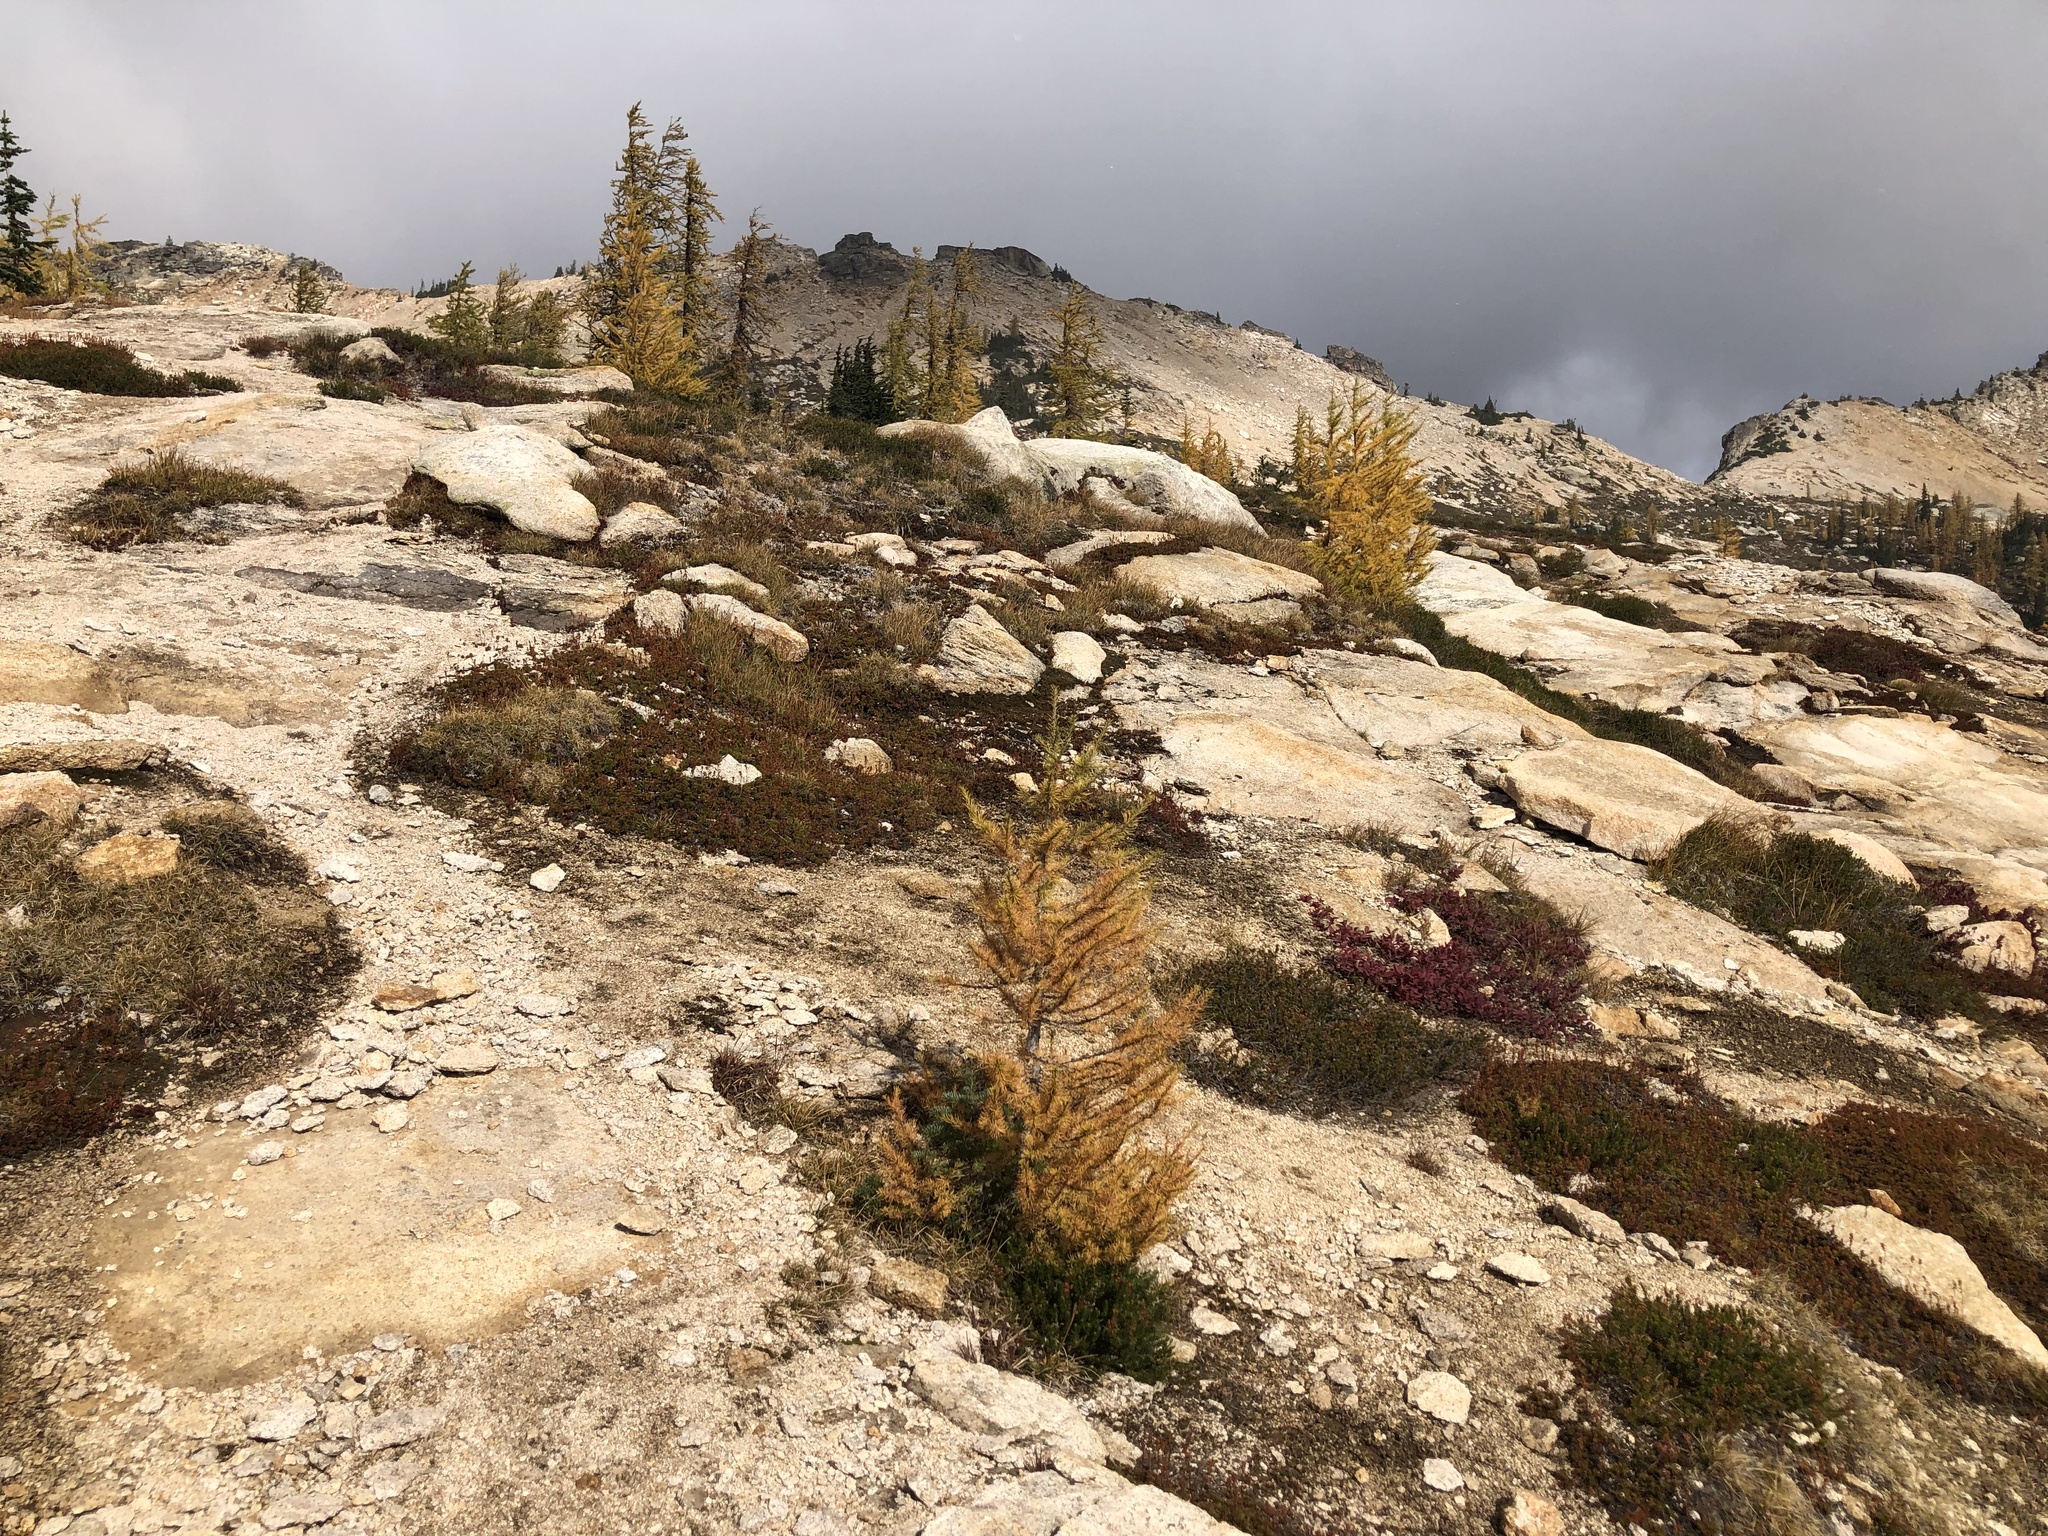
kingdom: Plantae
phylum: Tracheophyta
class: Pinopsida
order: Pinales
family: Pinaceae
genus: Larix
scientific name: Larix lyallii
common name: Alpine larch
